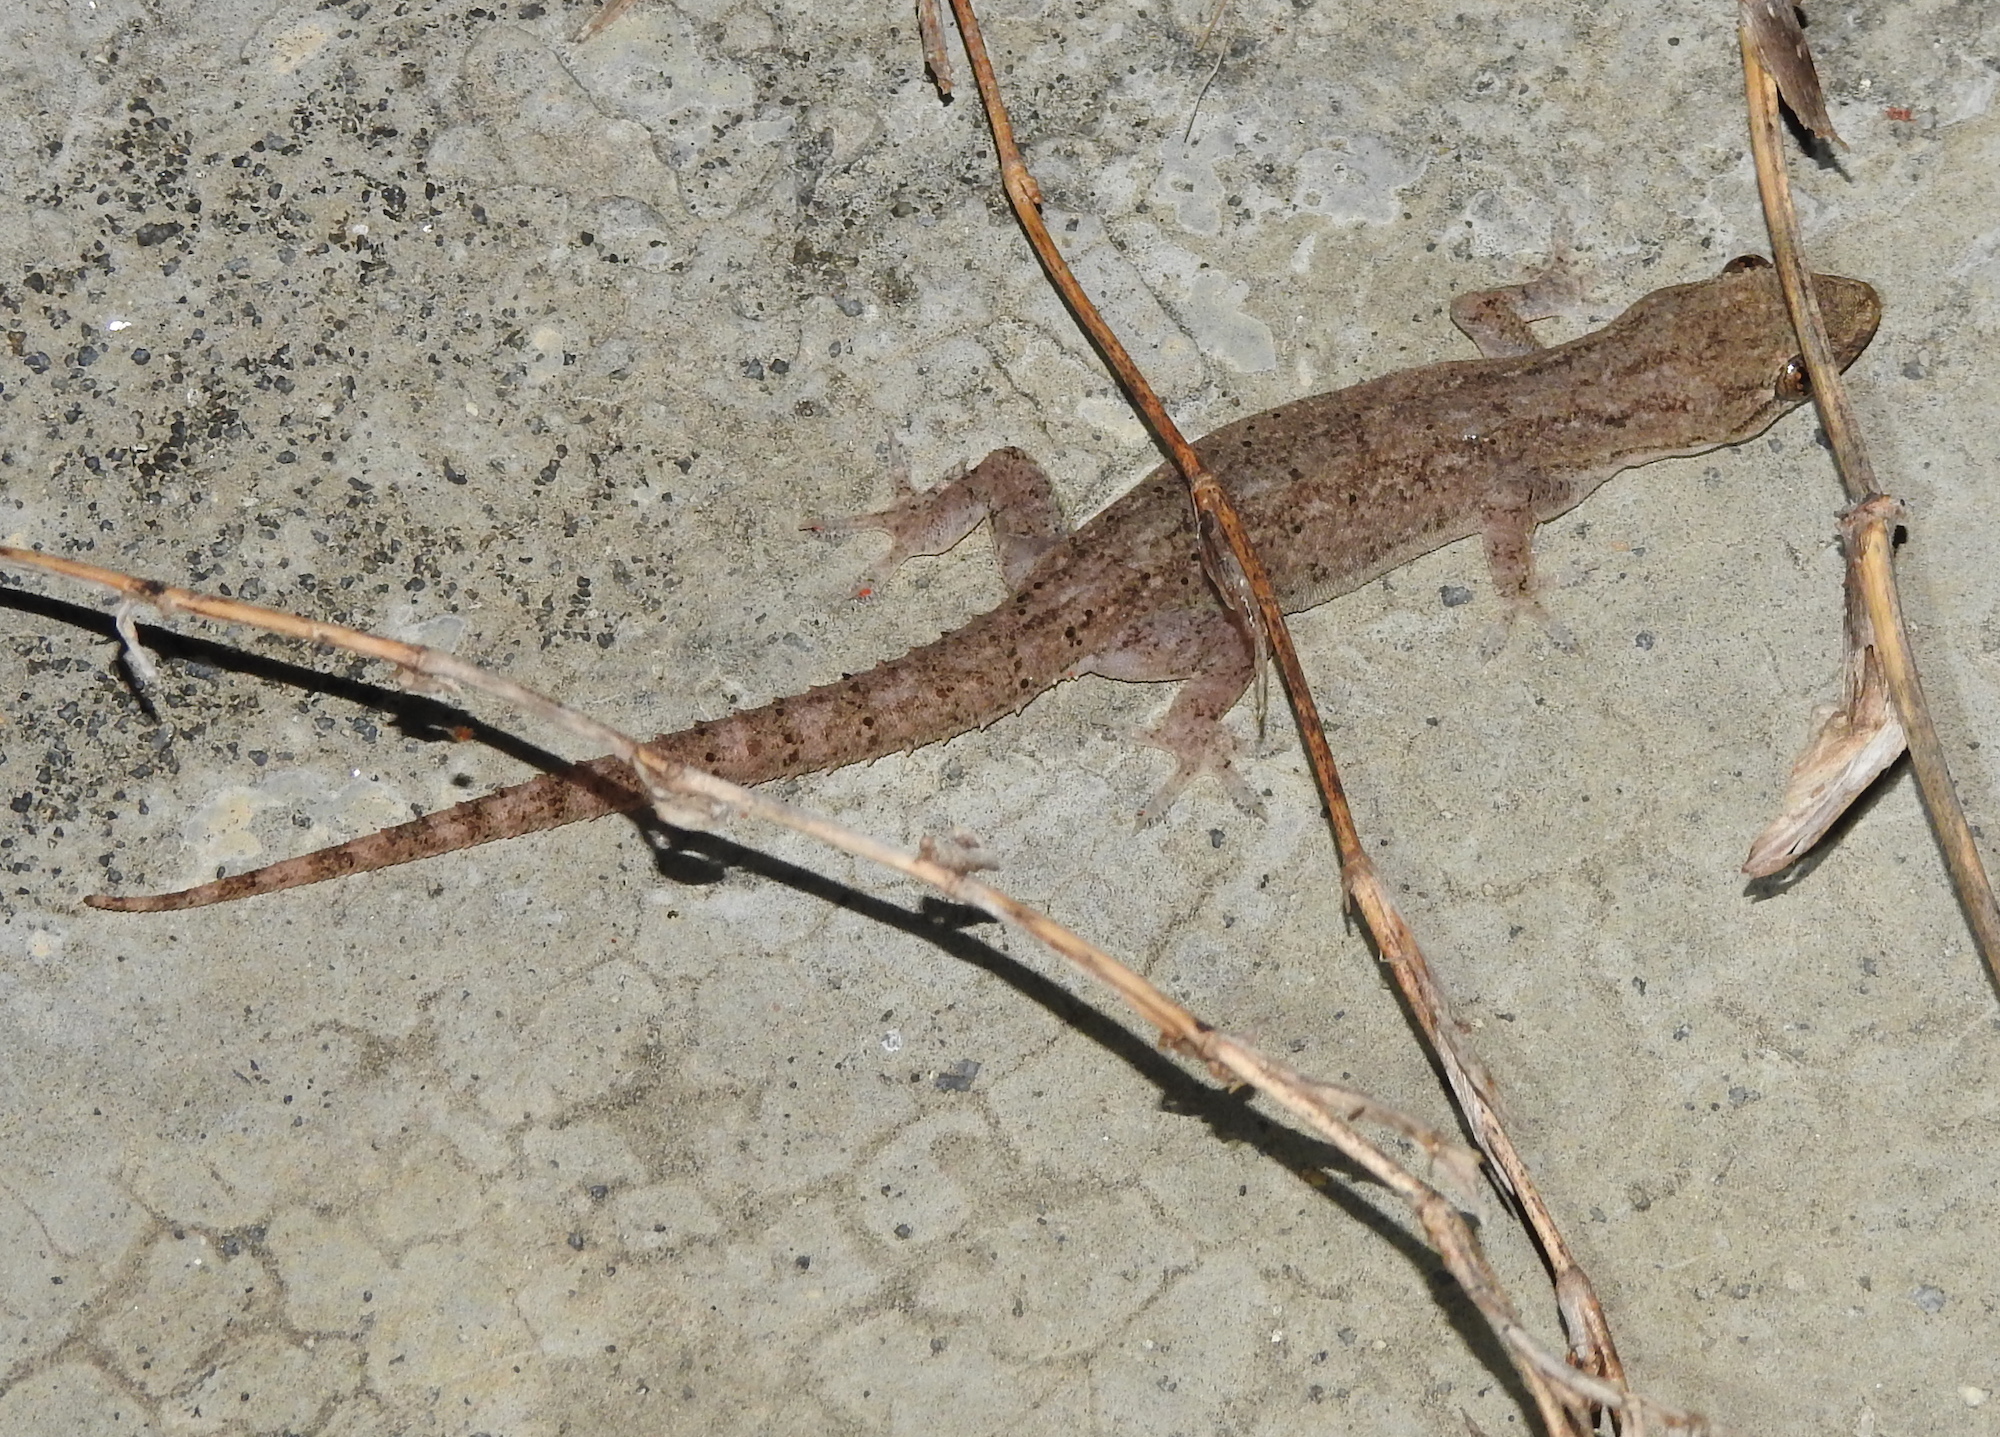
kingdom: Animalia
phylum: Chordata
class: Squamata
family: Gekkonidae
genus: Hemidactylus
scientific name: Hemidactylus frenatus
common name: Common house gecko
